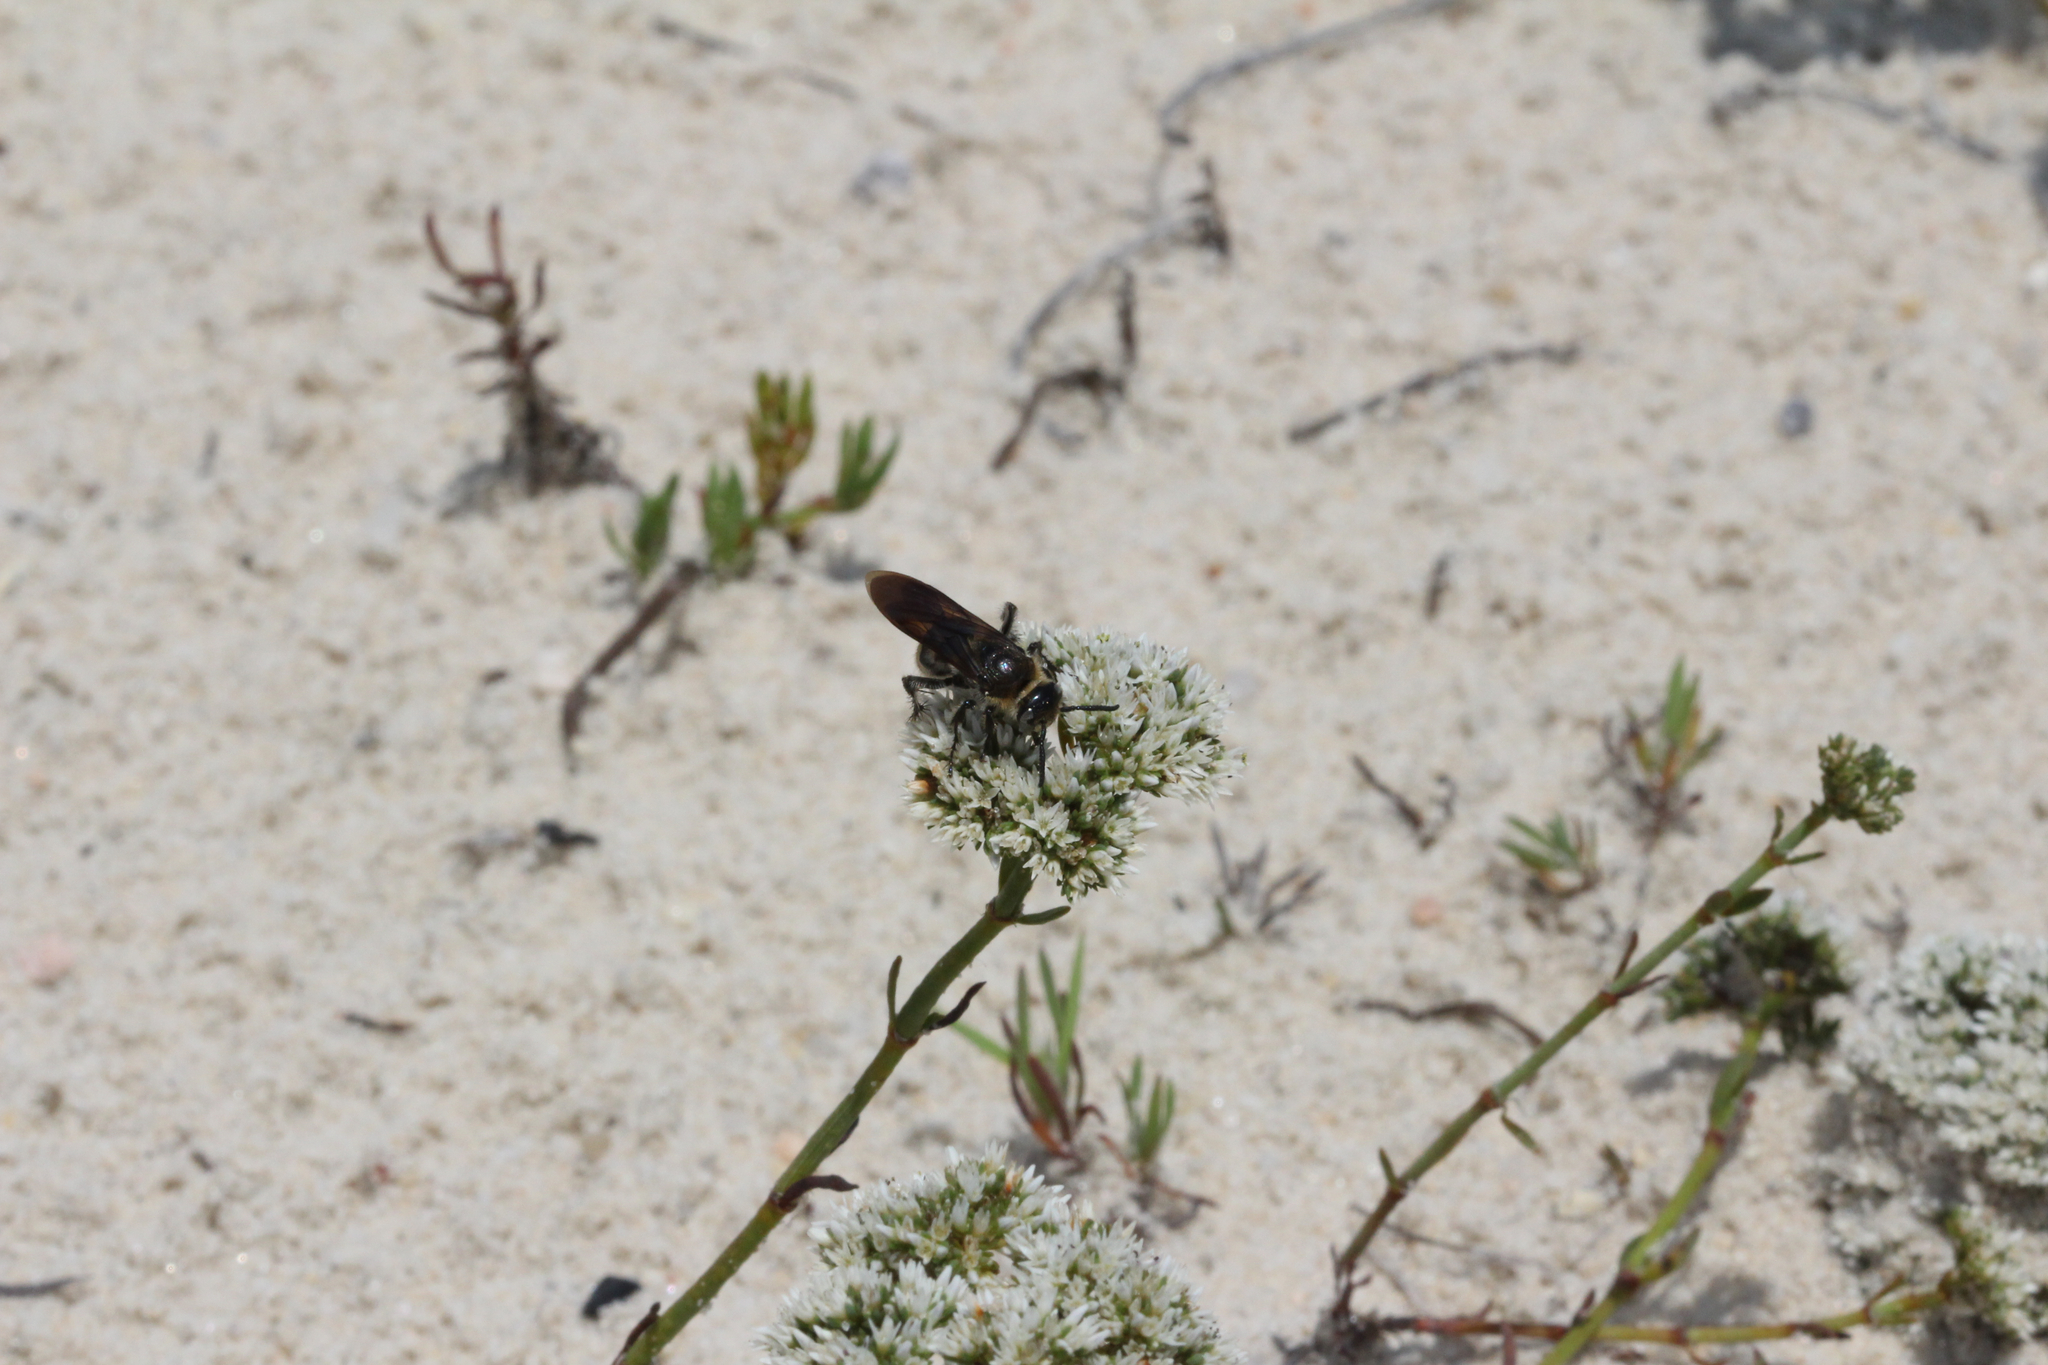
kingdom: Animalia
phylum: Arthropoda
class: Insecta
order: Hymenoptera
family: Scoliidae
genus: Dielis
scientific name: Dielis
